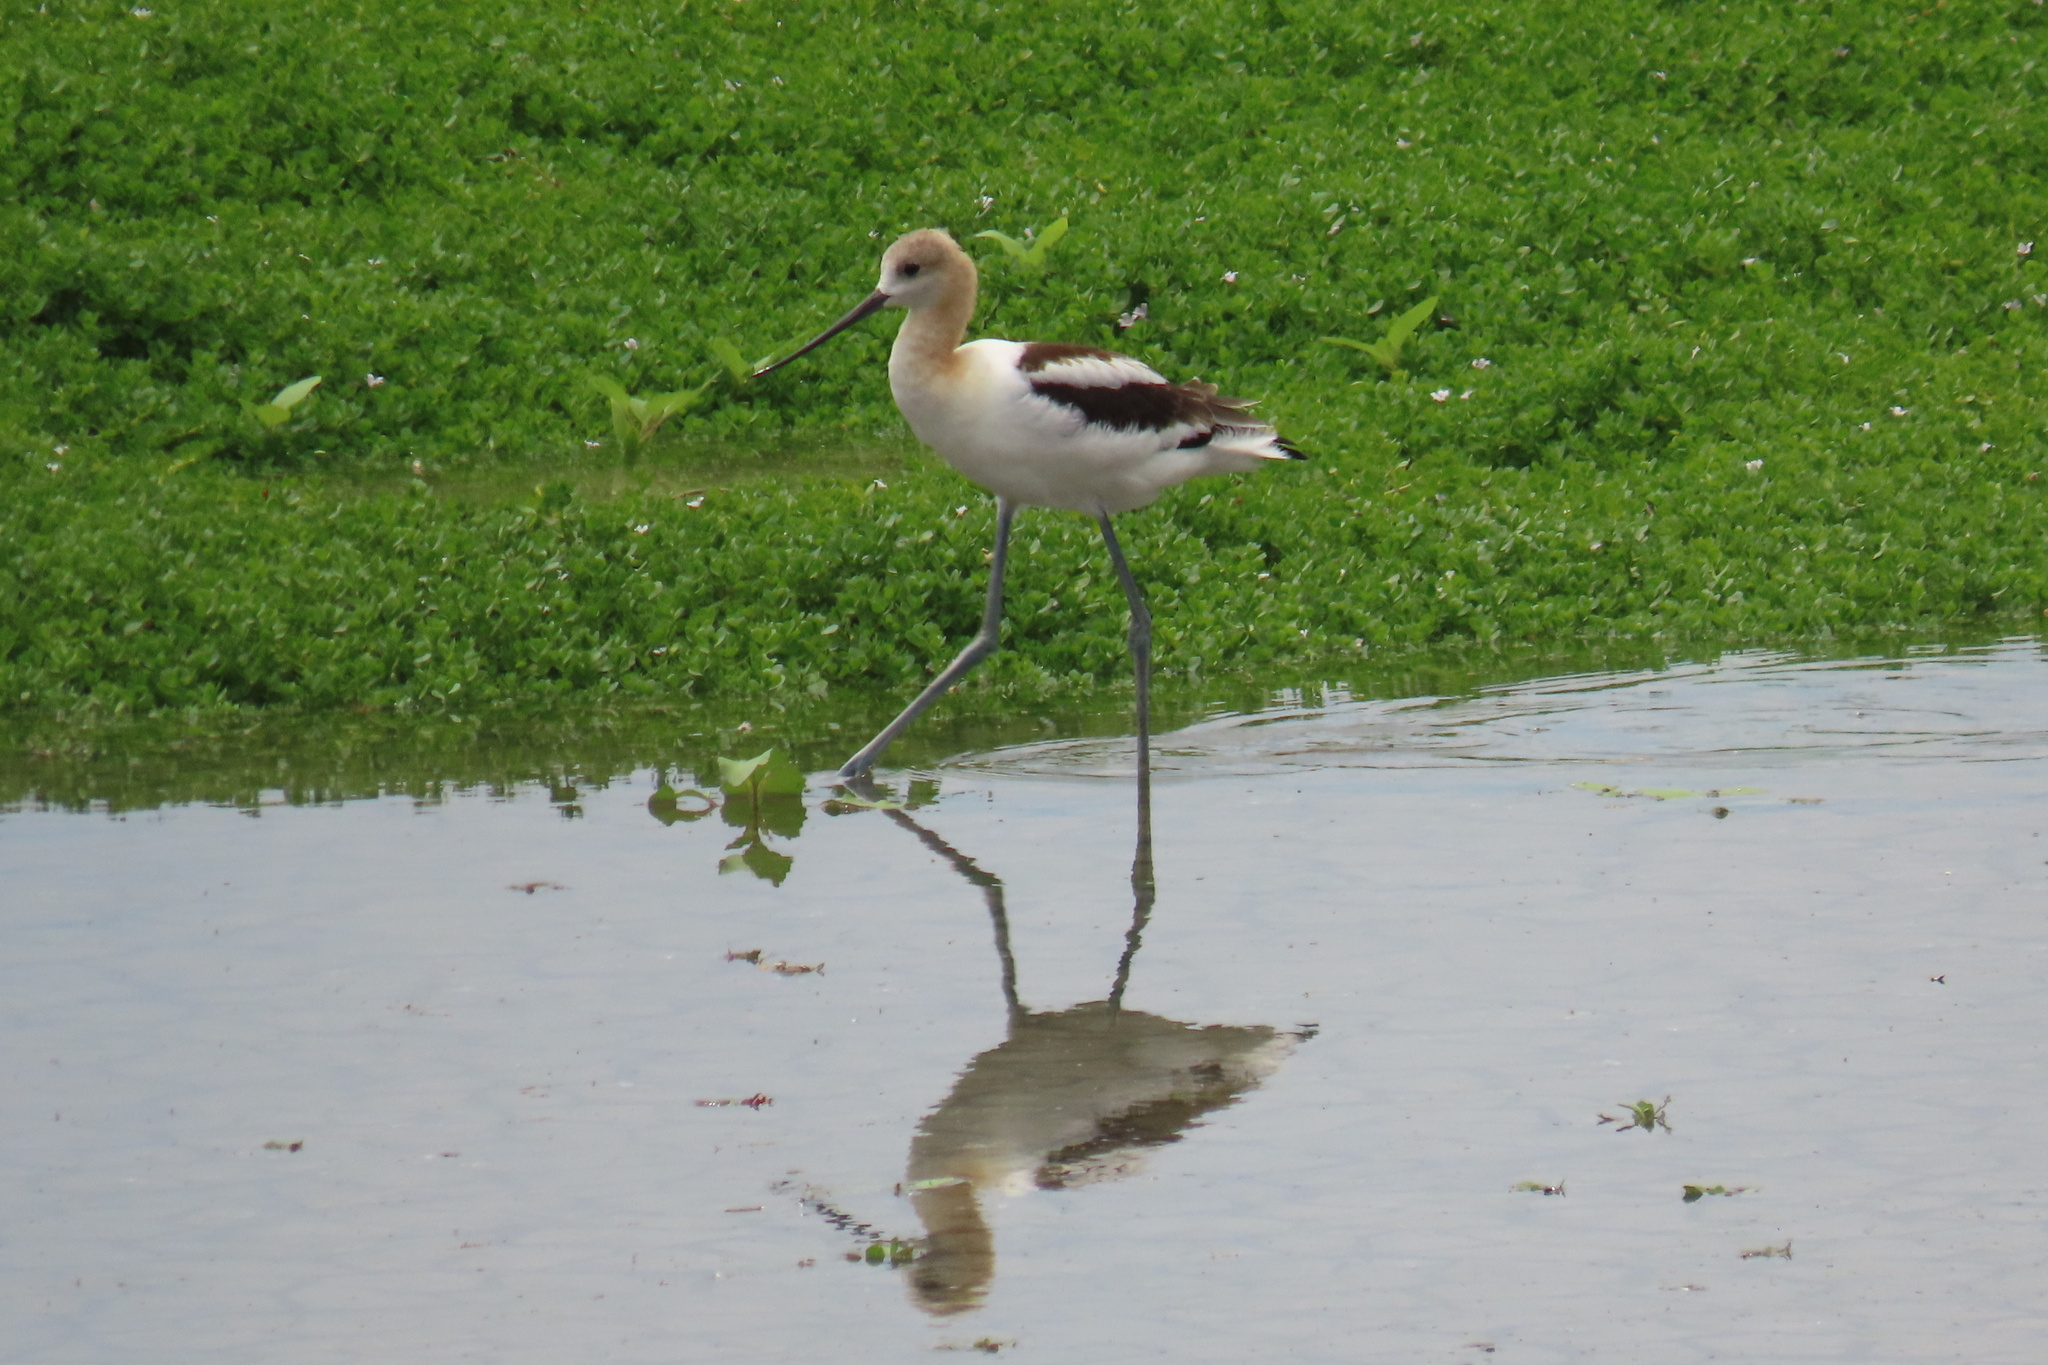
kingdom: Animalia
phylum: Chordata
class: Aves
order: Charadriiformes
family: Recurvirostridae
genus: Recurvirostra
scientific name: Recurvirostra americana
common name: American avocet
